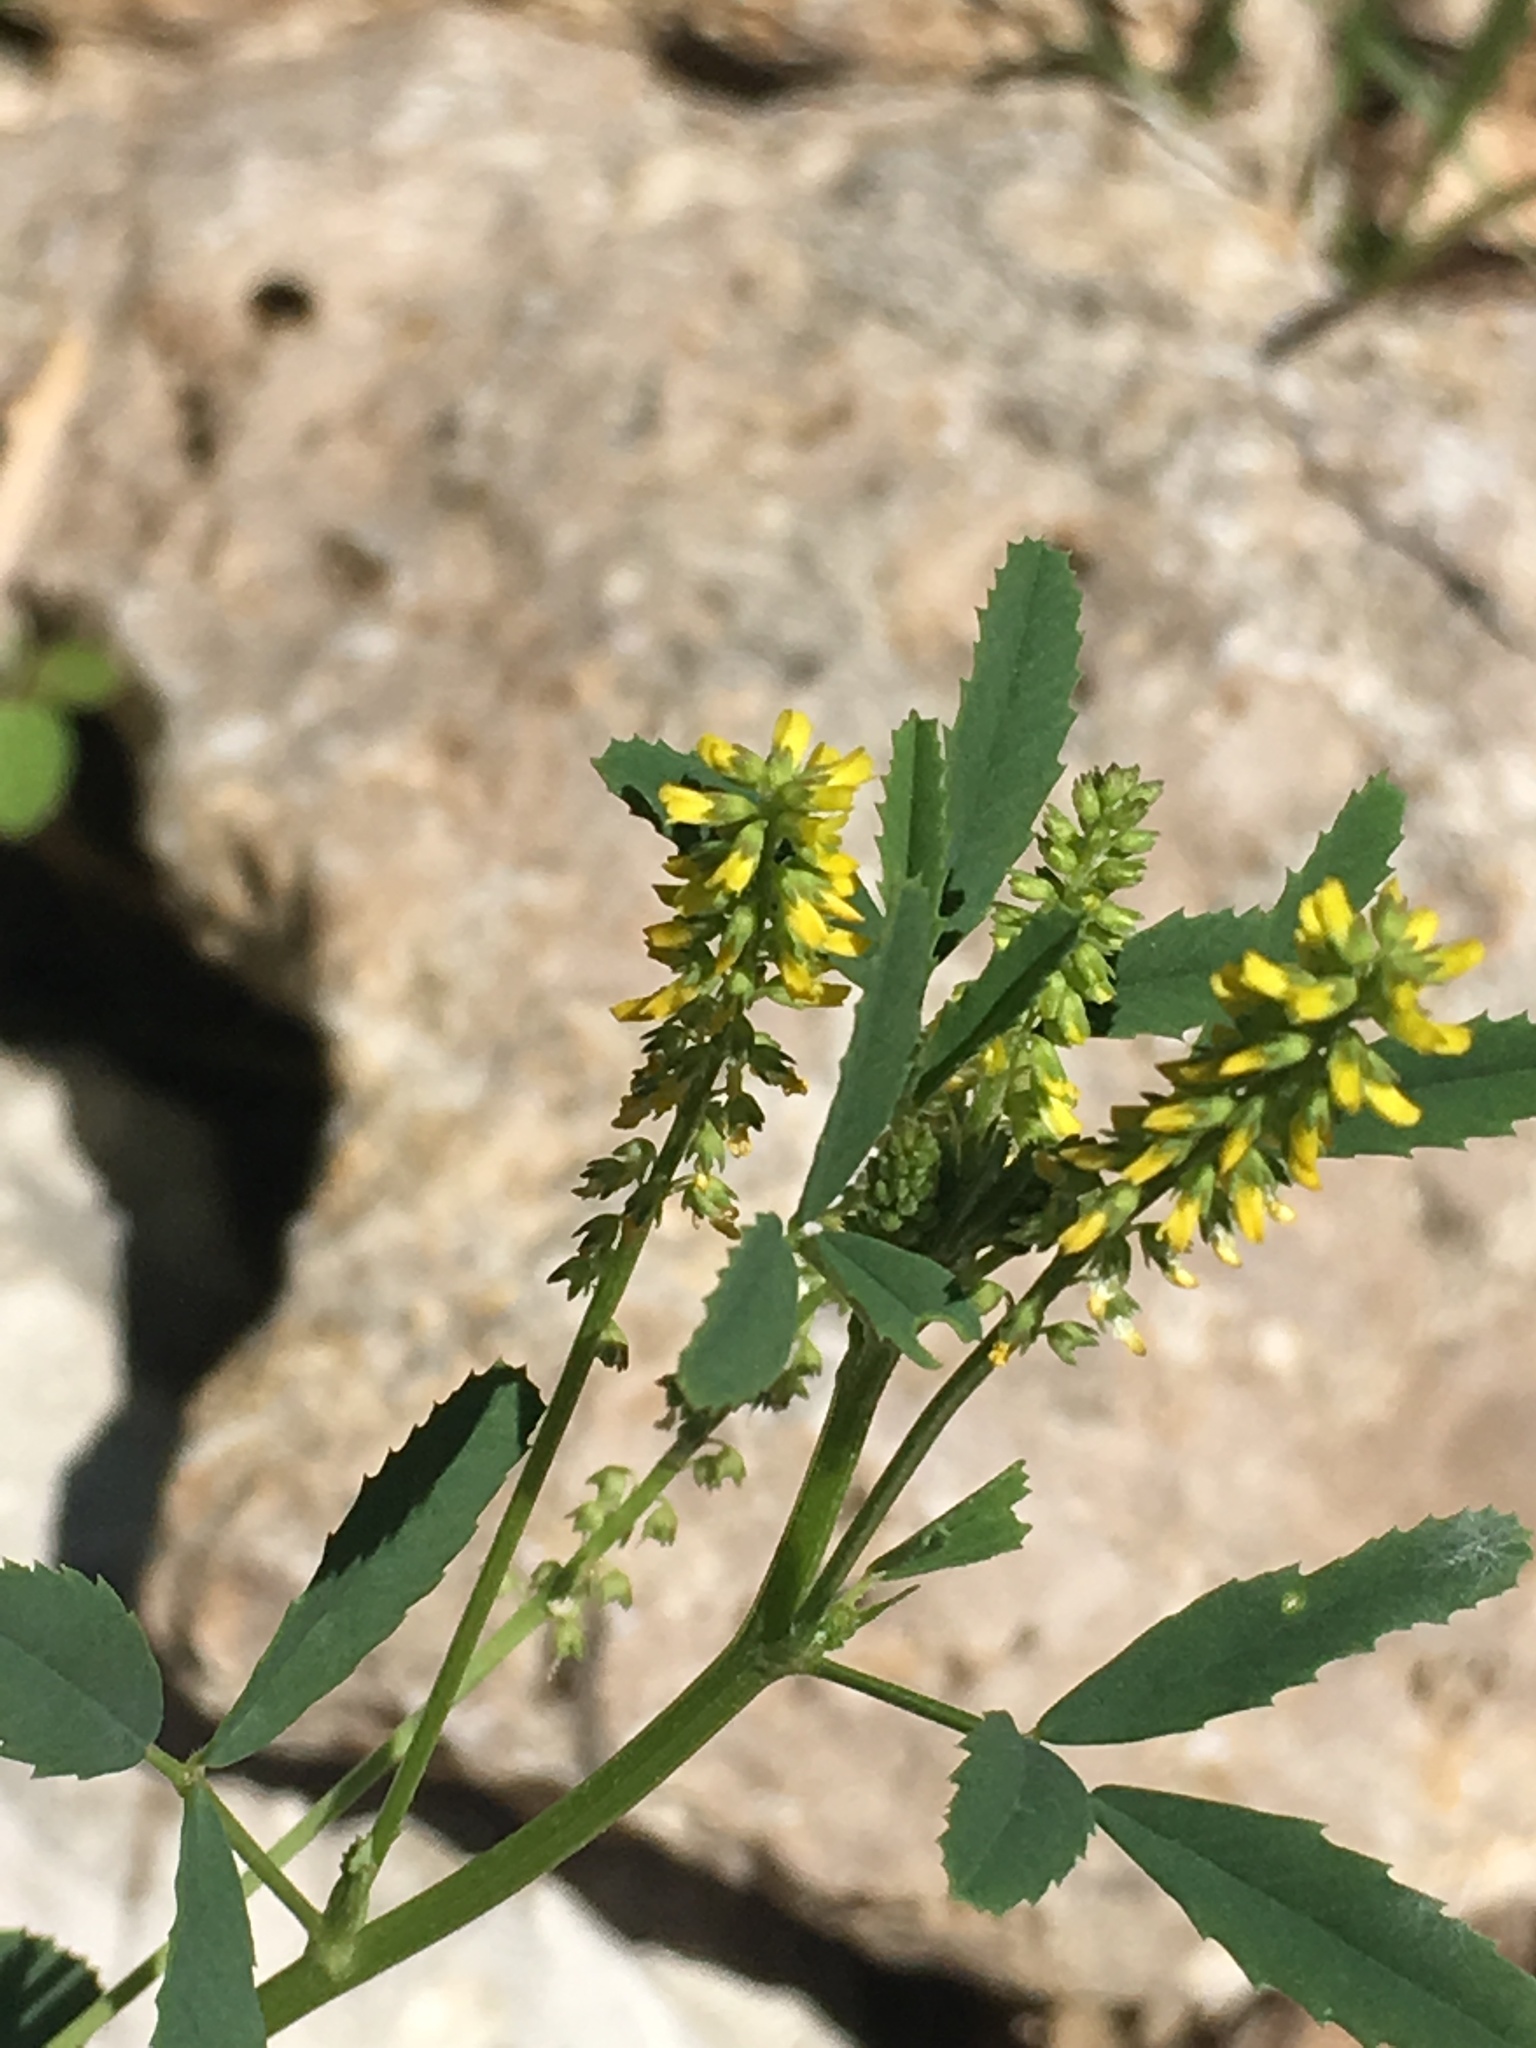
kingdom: Plantae
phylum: Tracheophyta
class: Magnoliopsida
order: Fabales
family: Fabaceae
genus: Melilotus
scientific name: Melilotus indicus
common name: Small melilot
